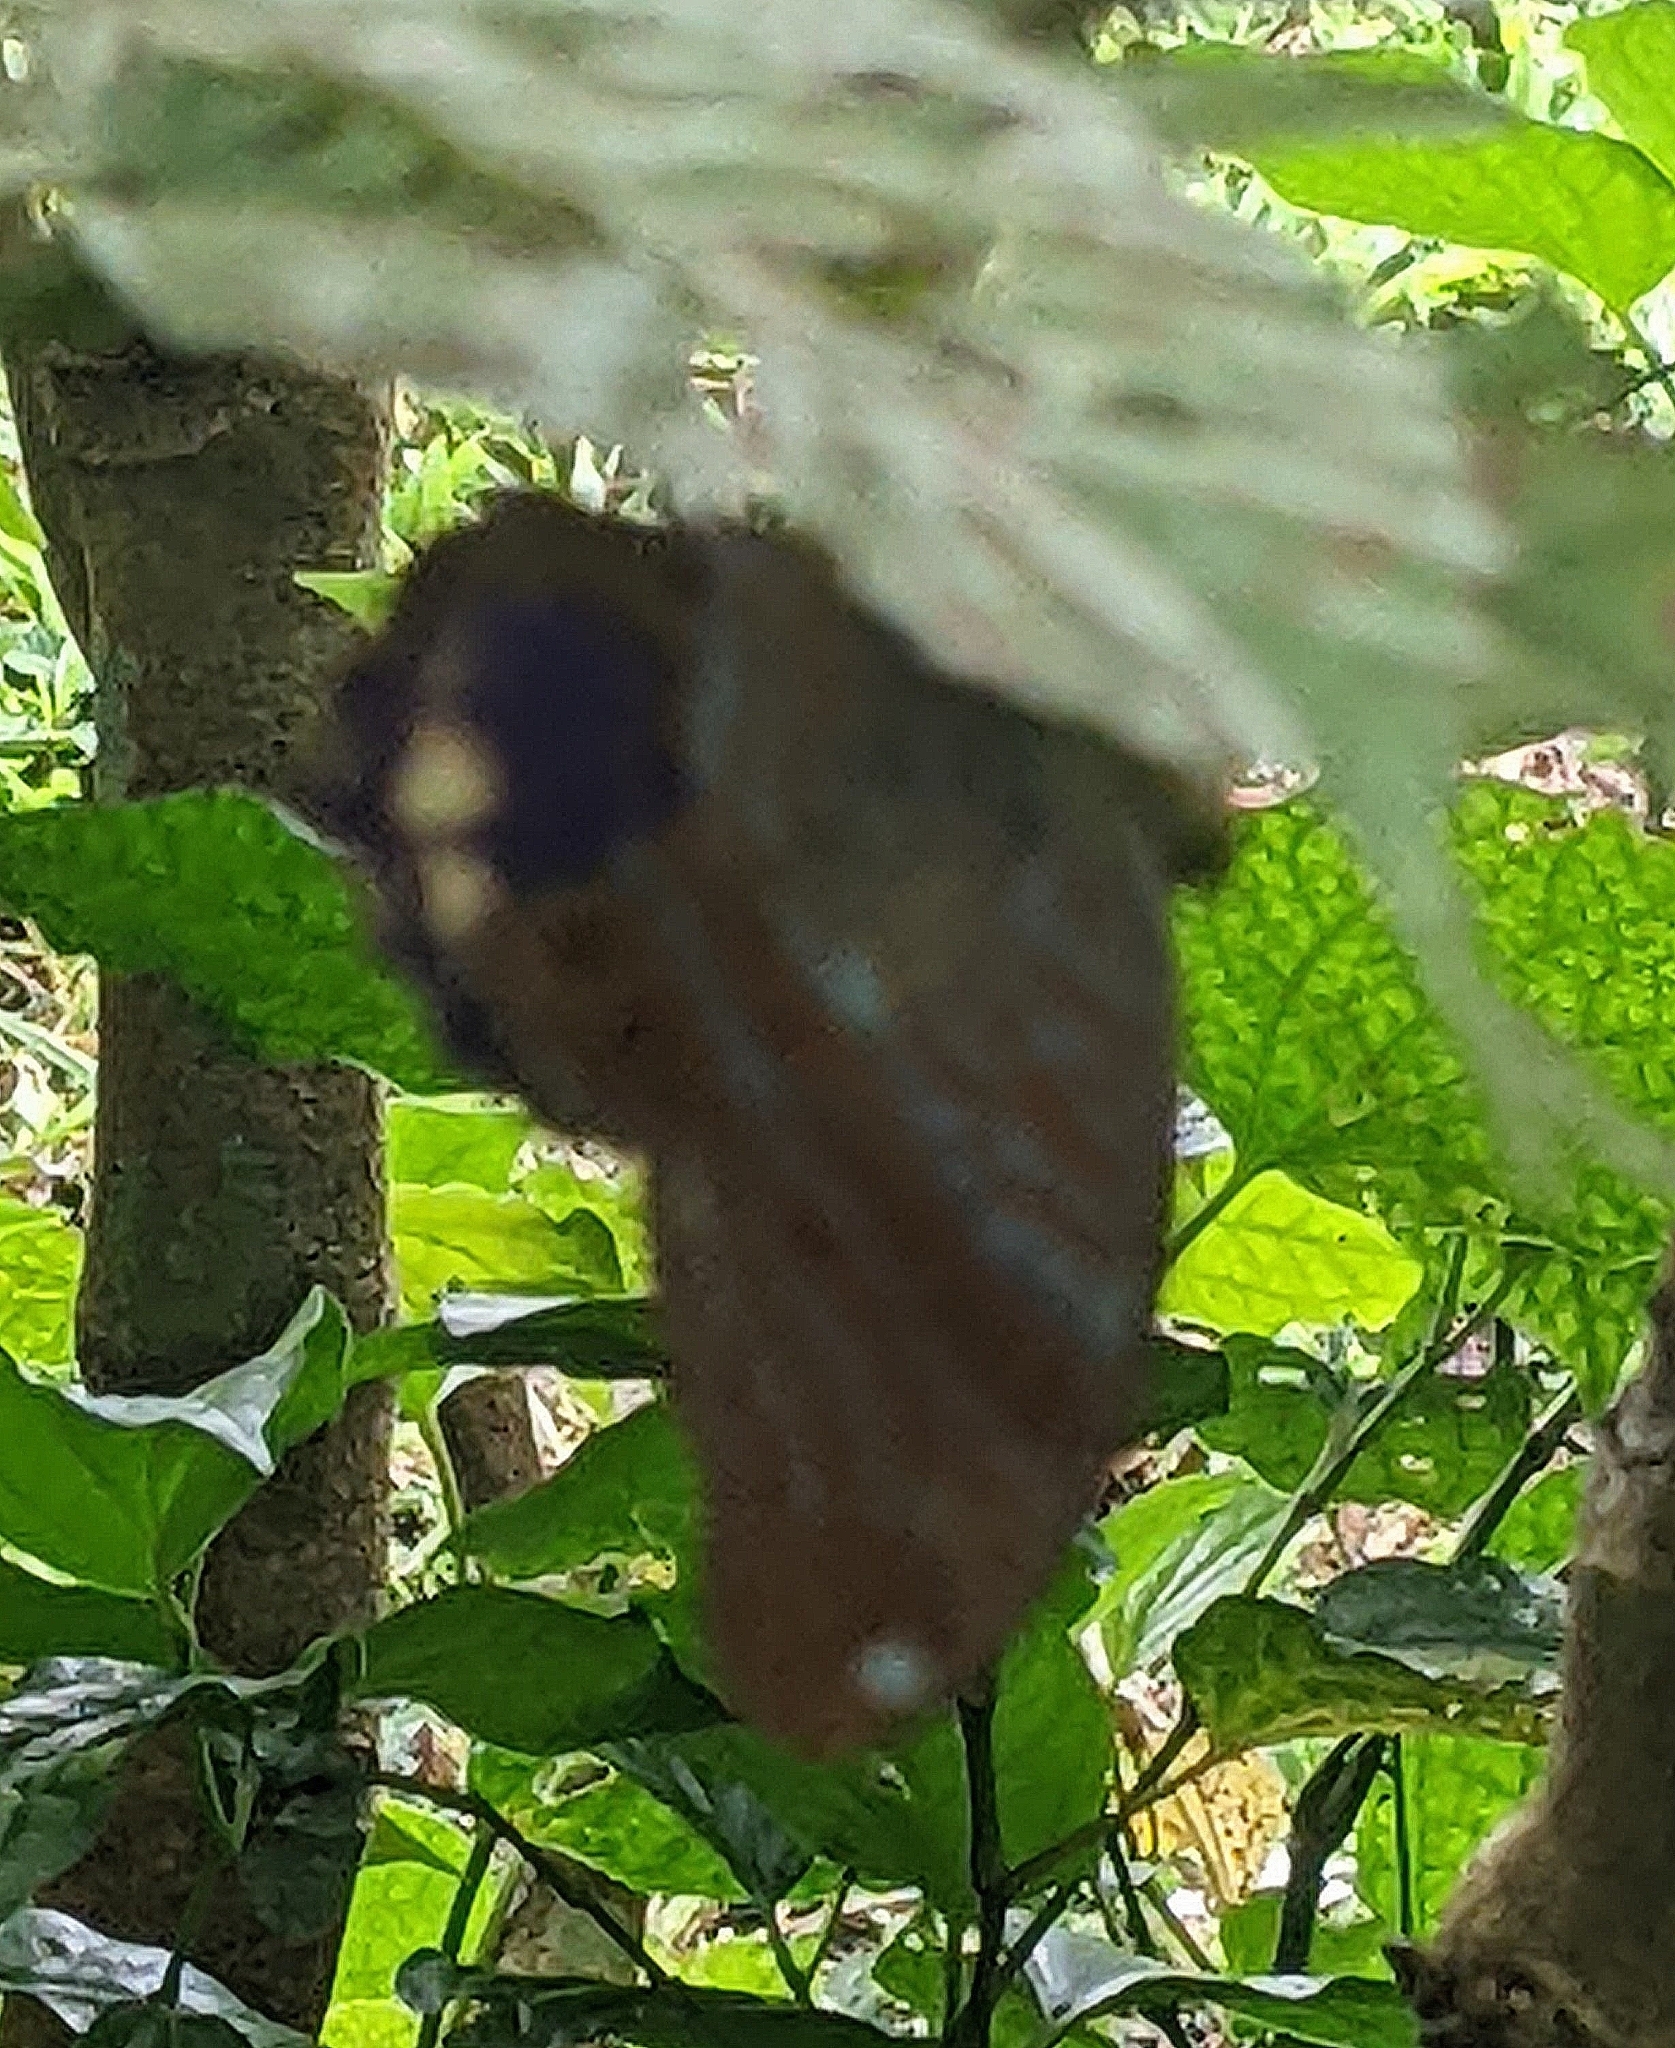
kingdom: Animalia
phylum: Arthropoda
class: Insecta
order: Lepidoptera
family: Nymphalidae
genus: Terinos
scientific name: Terinos terpander
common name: Royal assyrian
